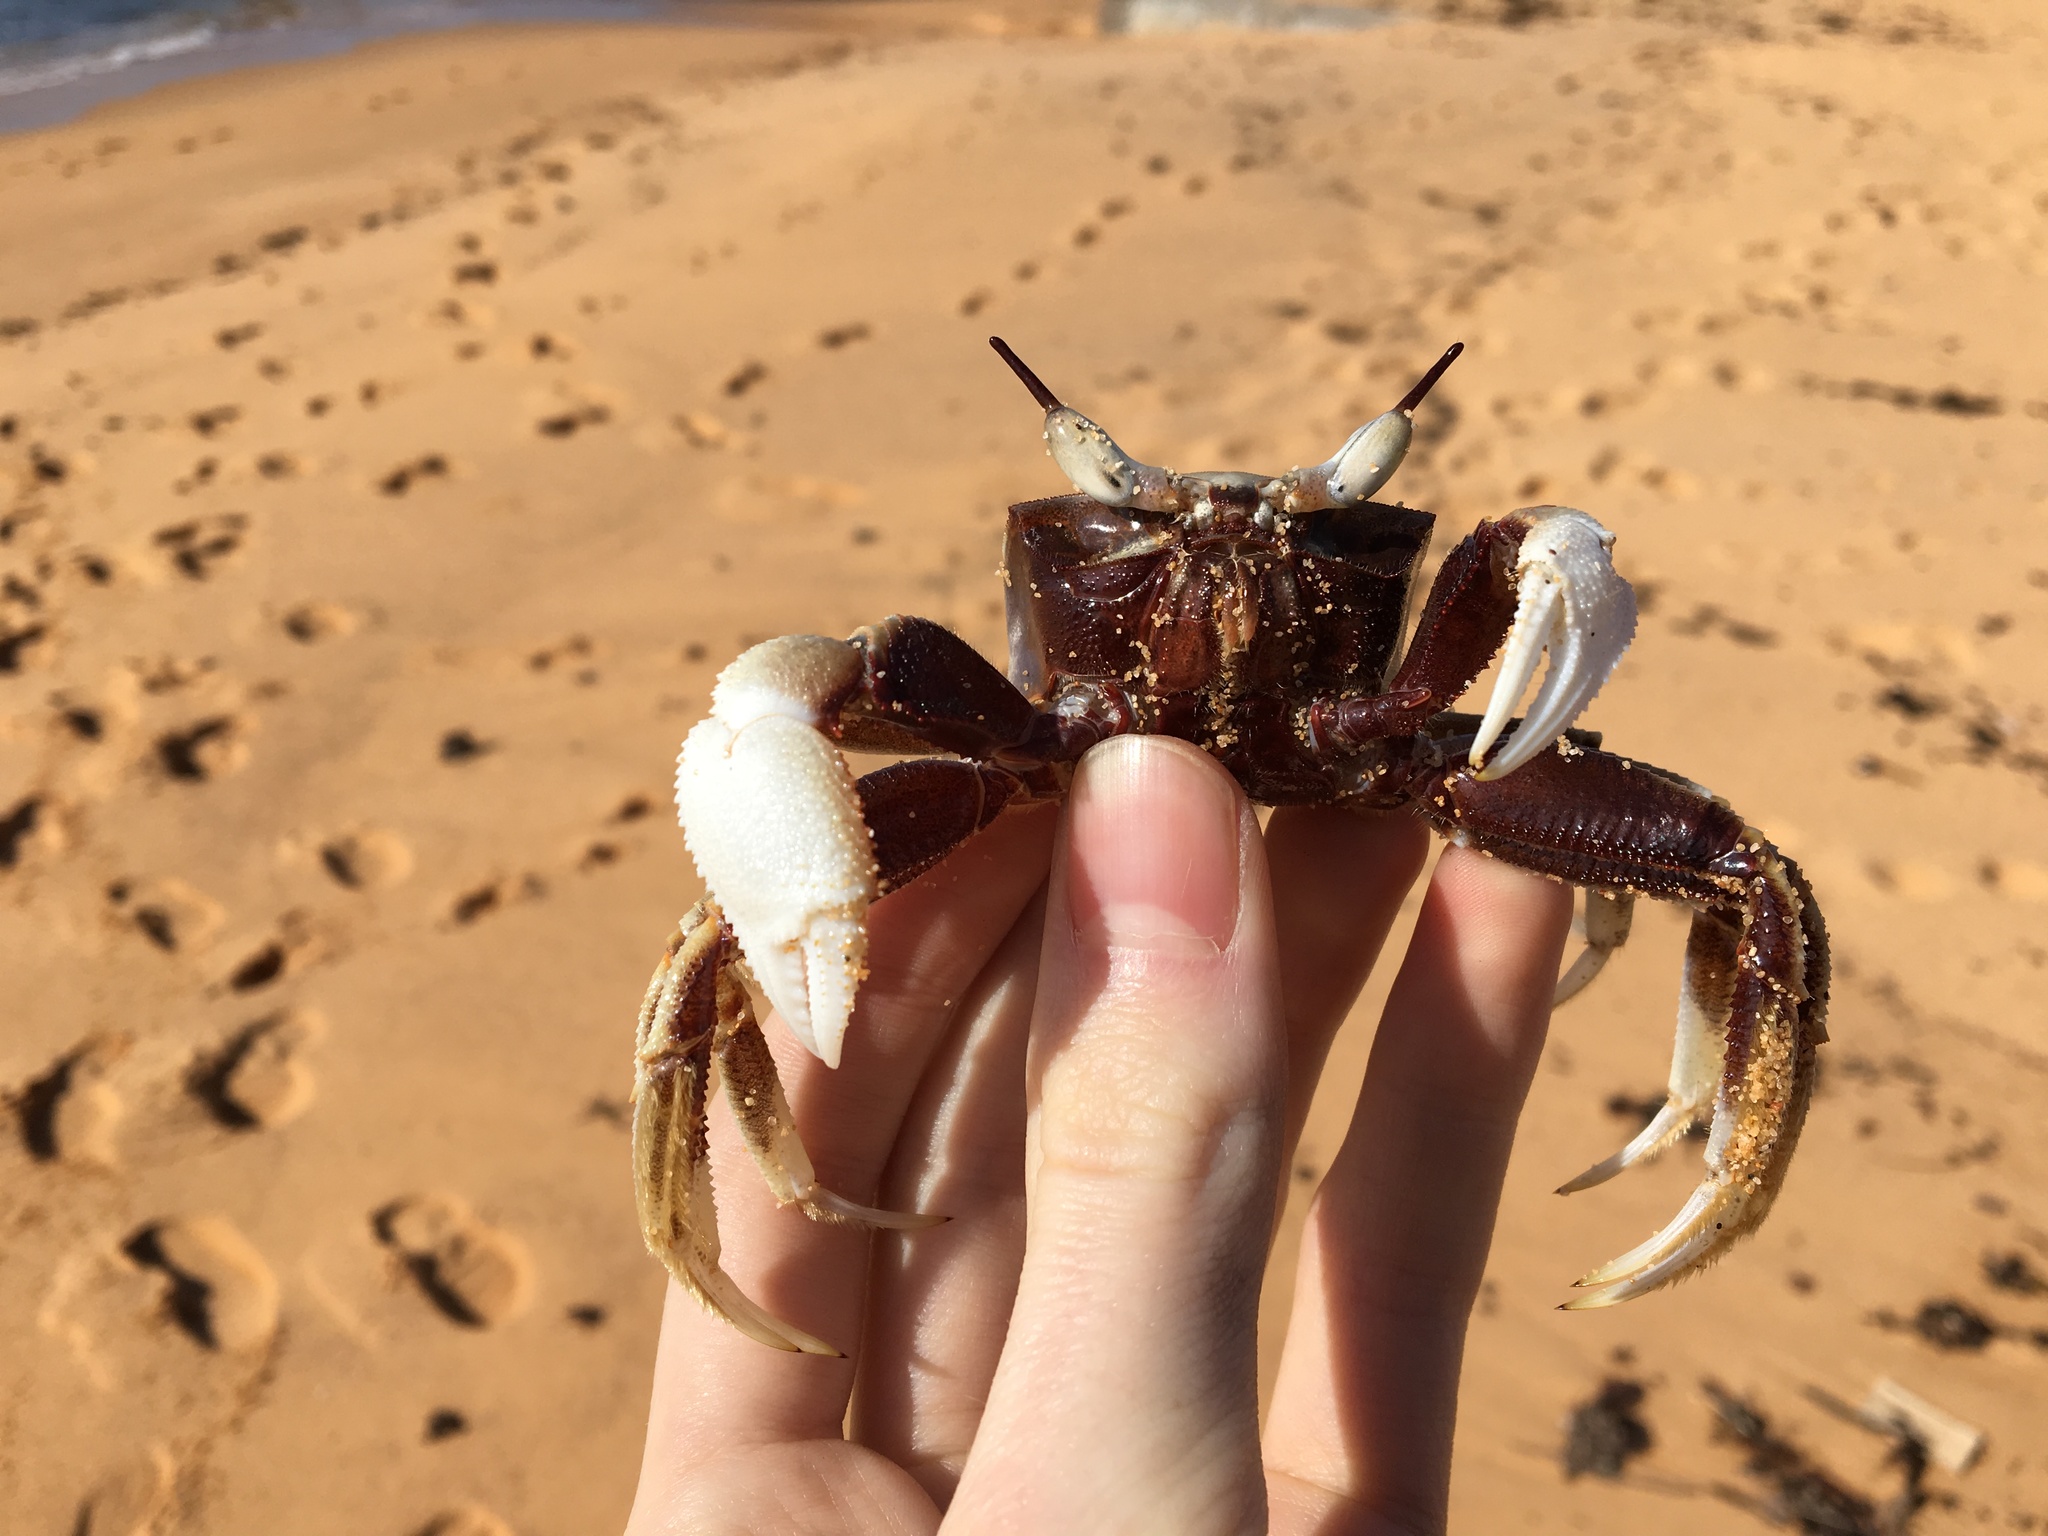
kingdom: Animalia
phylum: Arthropoda
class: Malacostraca
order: Decapoda
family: Ocypodidae
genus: Ocypode
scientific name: Ocypode ceratophthalmus
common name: Indo-pacific ghost crab
